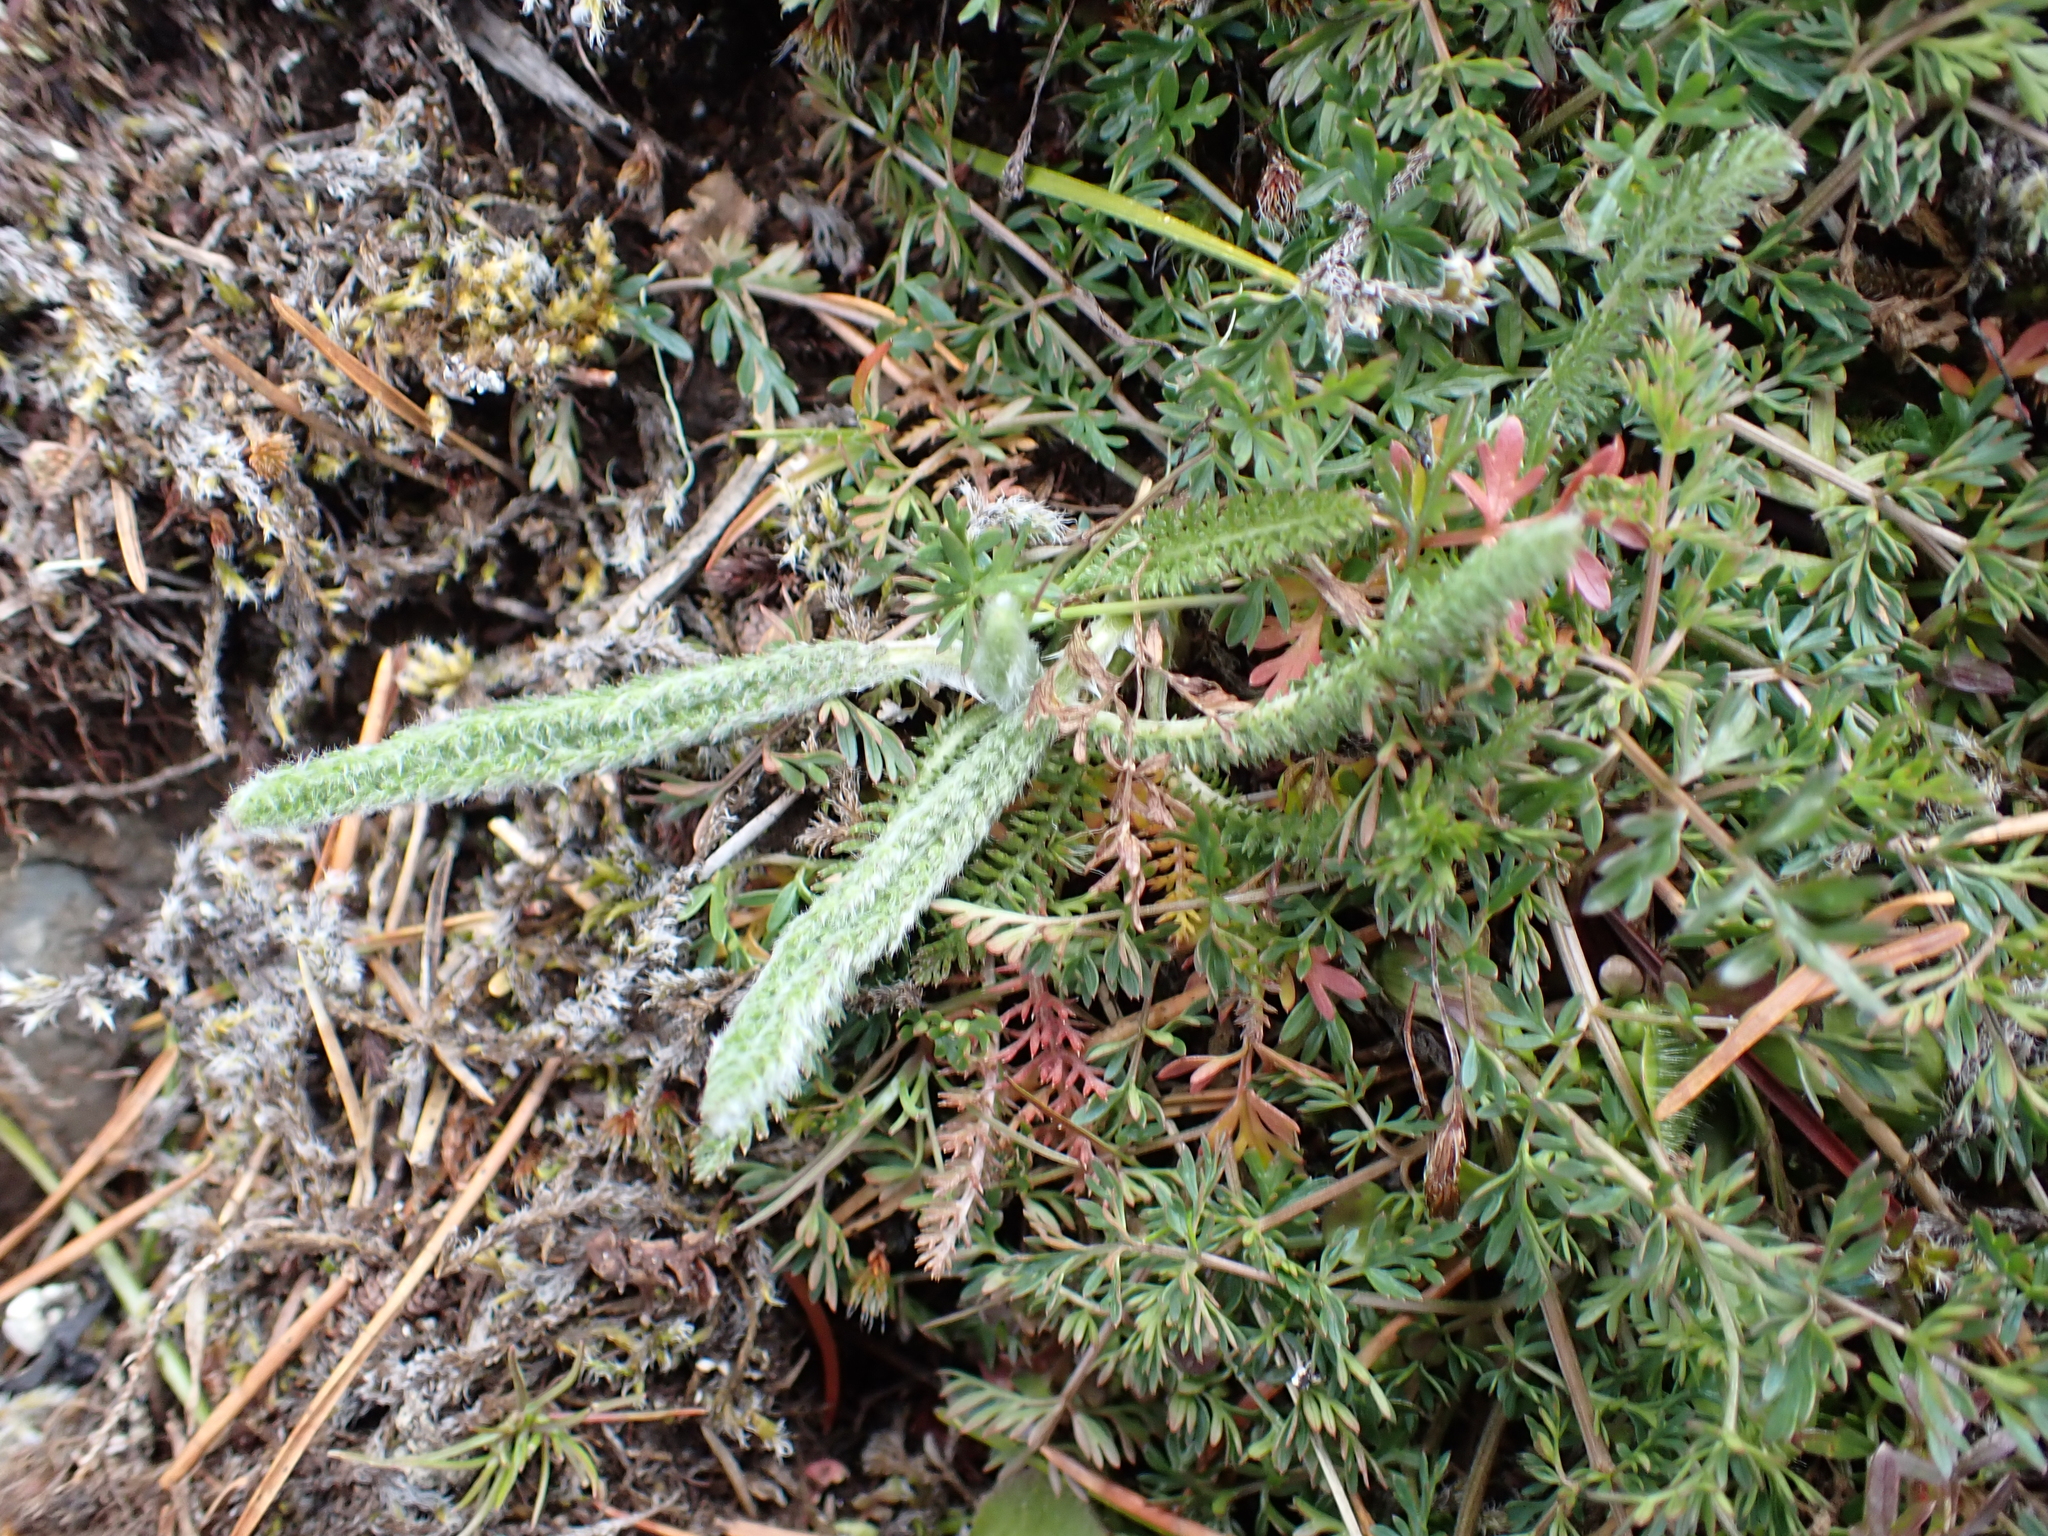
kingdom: Plantae
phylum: Tracheophyta
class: Magnoliopsida
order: Asterales
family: Asteraceae
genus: Achillea
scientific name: Achillea millefolium
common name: Yarrow
